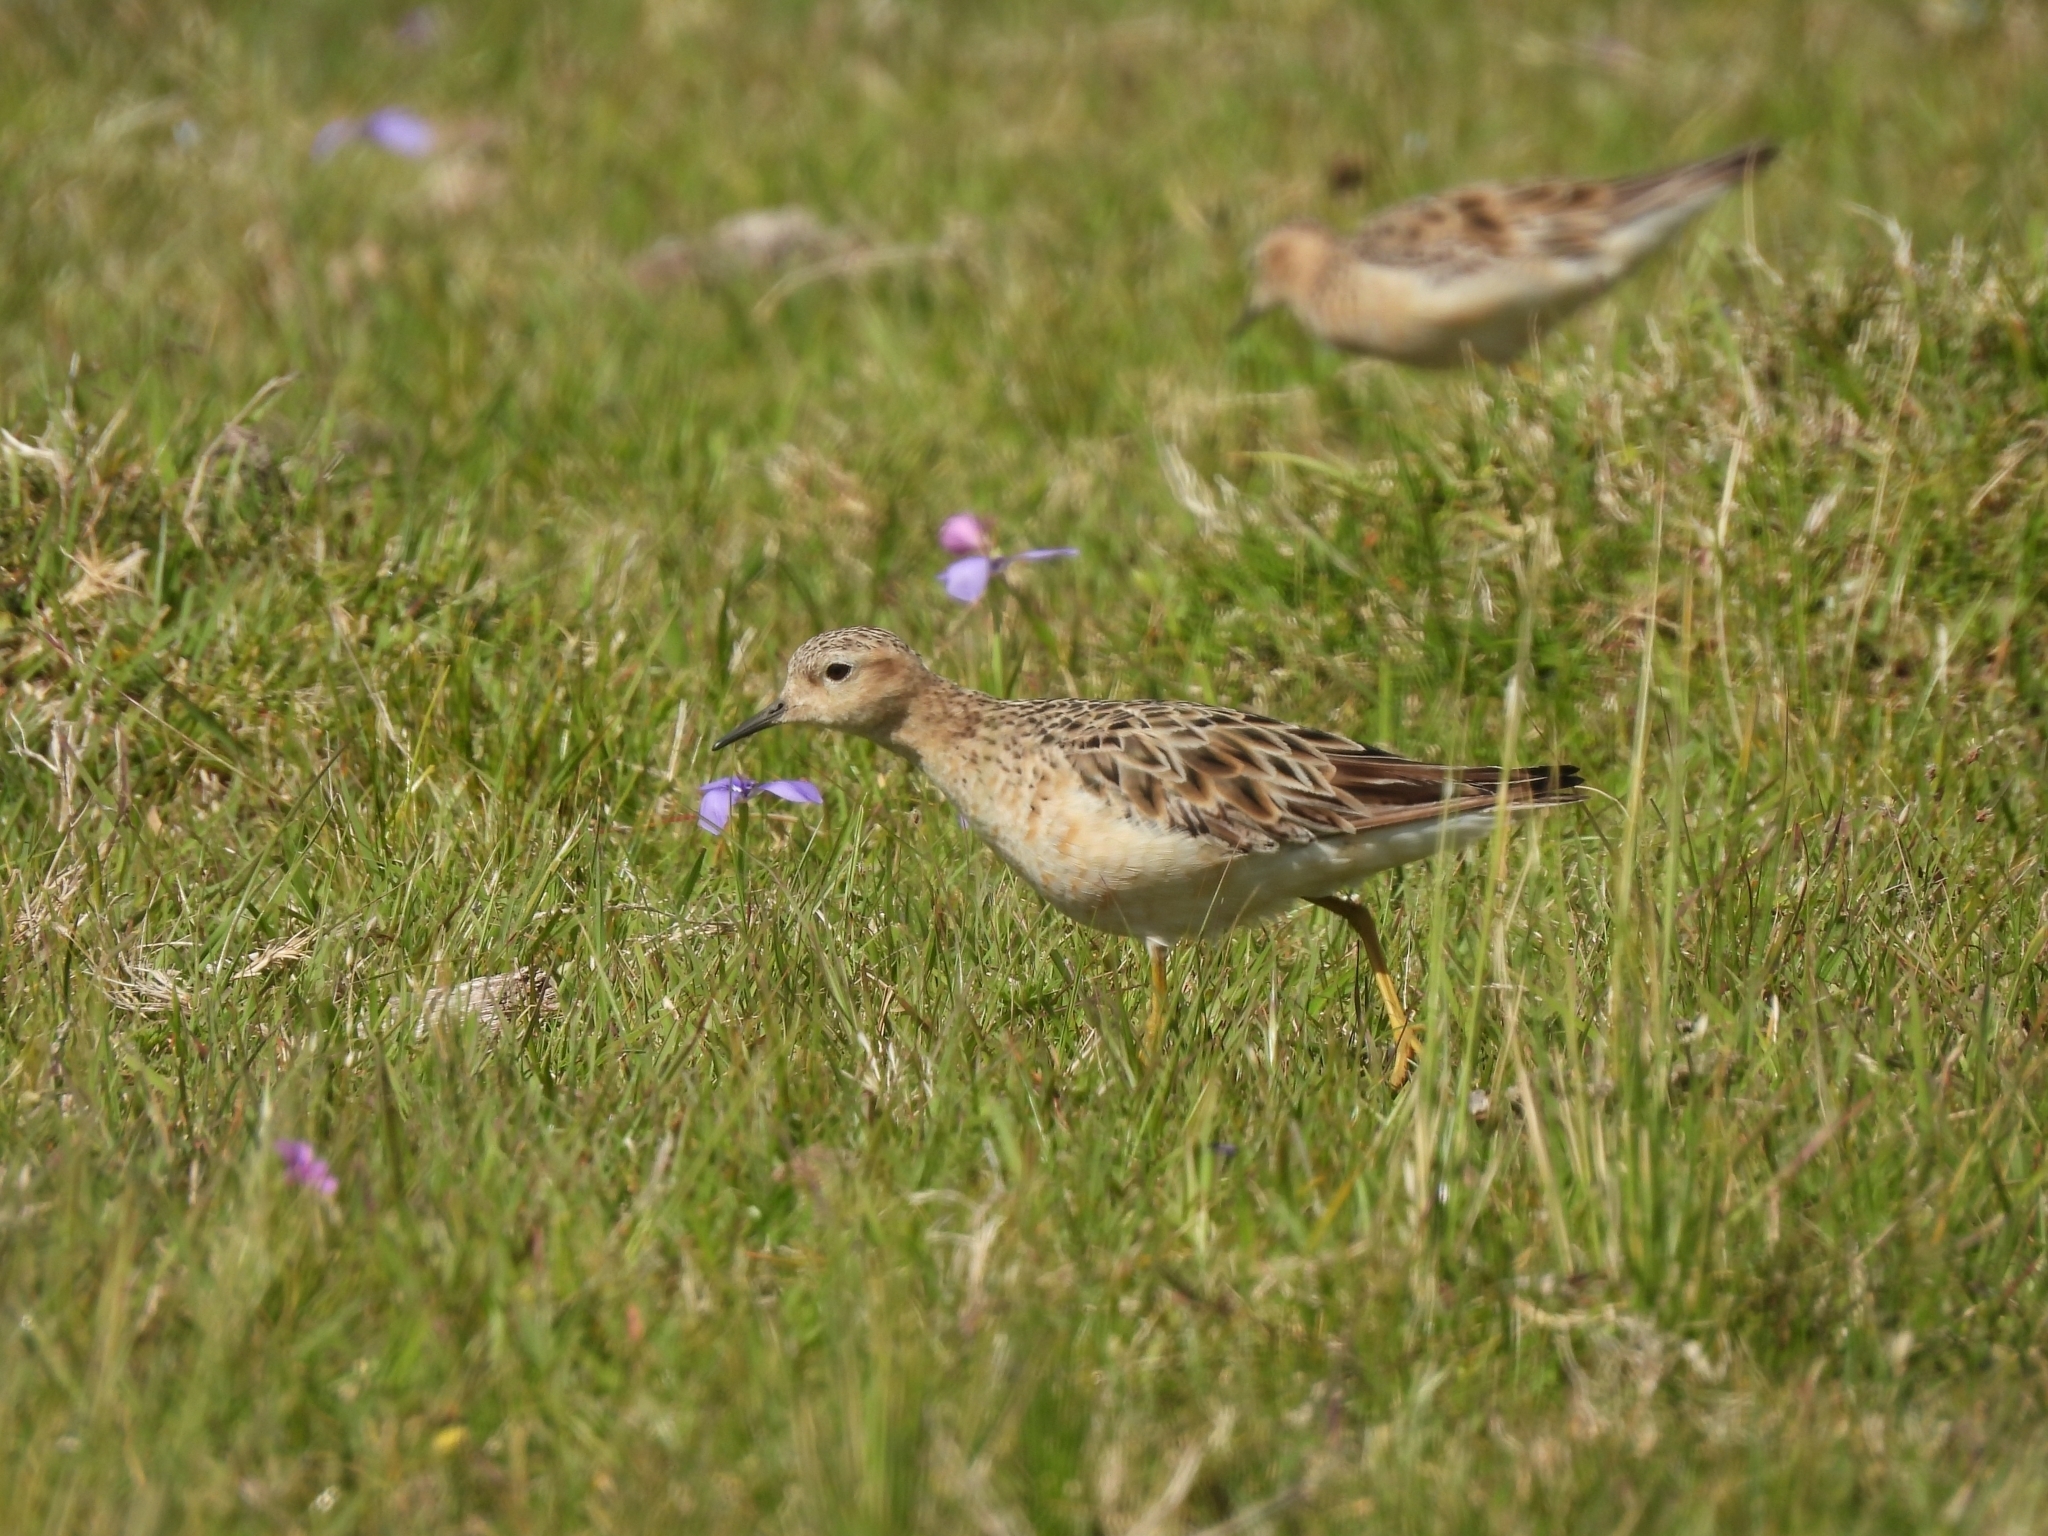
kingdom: Animalia
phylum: Chordata
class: Aves
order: Charadriiformes
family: Scolopacidae
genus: Calidris
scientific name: Calidris subruficollis
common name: Buff-breasted sandpiper
